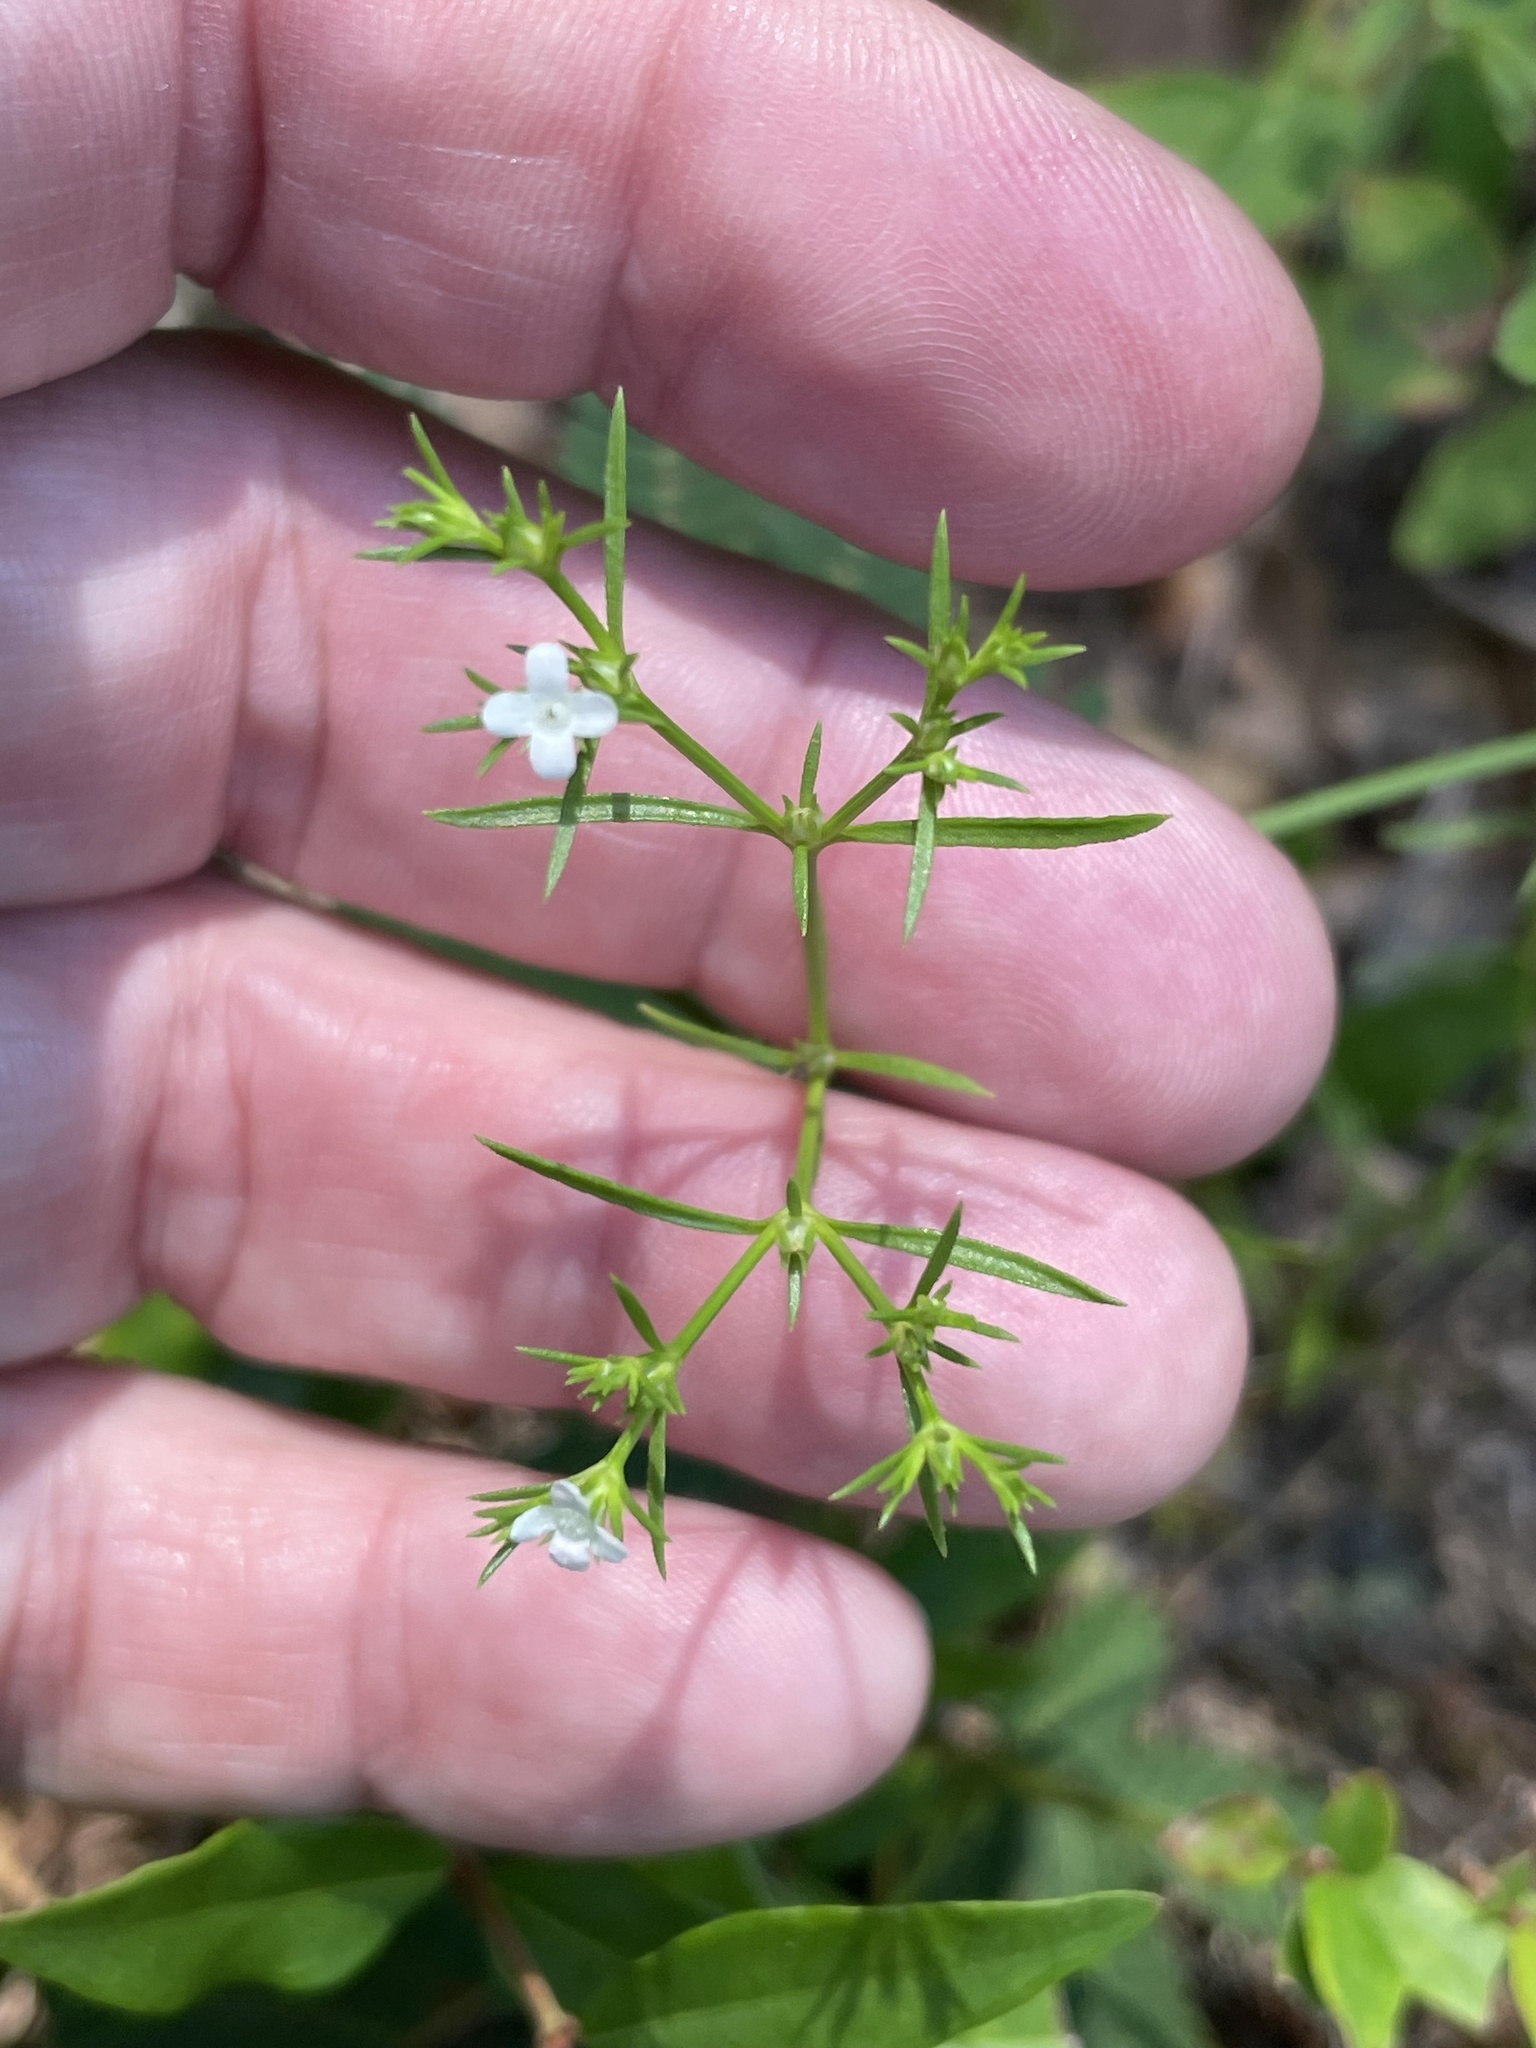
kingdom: Plantae
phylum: Tracheophyta
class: Magnoliopsida
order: Lamiales
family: Tetrachondraceae
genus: Polypremum
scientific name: Polypremum procumbens
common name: Juniper-leaf
